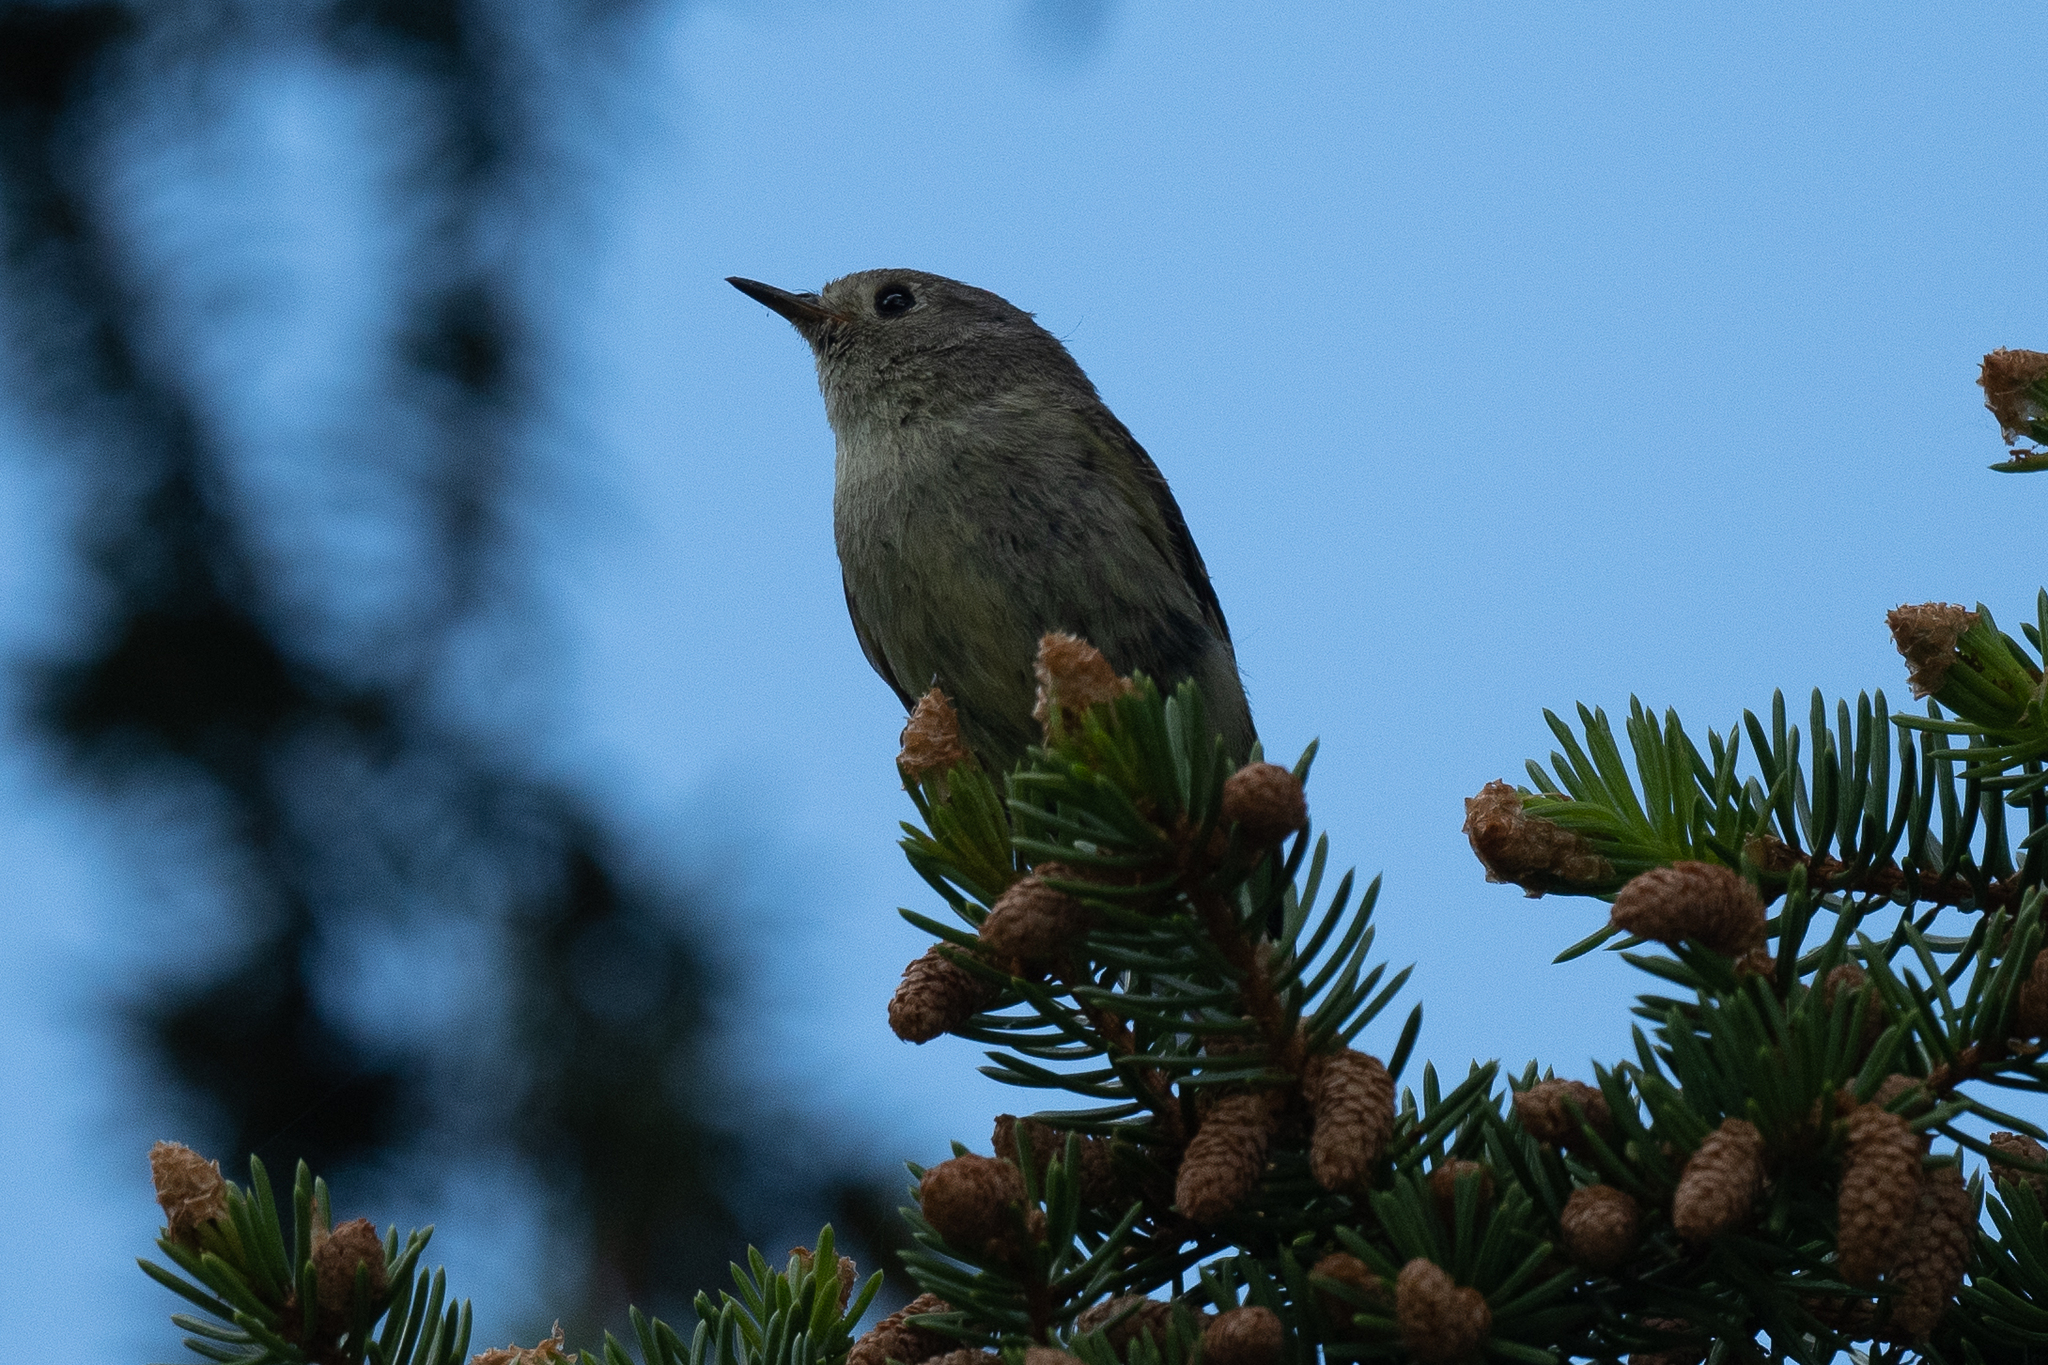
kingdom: Animalia
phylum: Chordata
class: Aves
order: Passeriformes
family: Regulidae
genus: Regulus
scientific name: Regulus calendula
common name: Ruby-crowned kinglet
